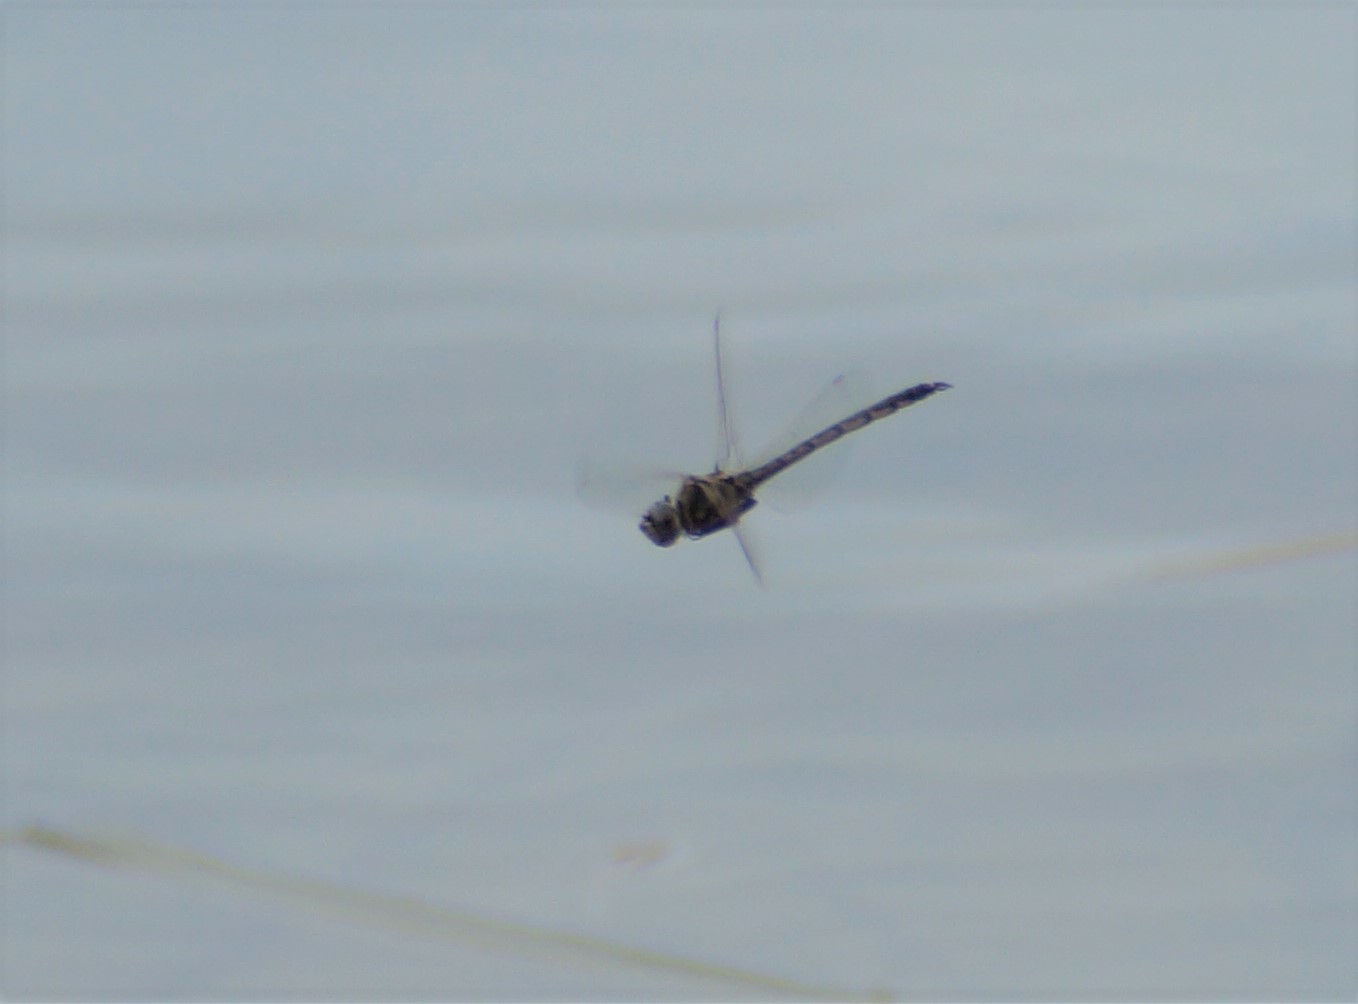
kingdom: Animalia
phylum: Arthropoda
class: Insecta
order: Odonata
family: Corduliidae
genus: Hemicordulia
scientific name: Hemicordulia tau
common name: Tau emerald
